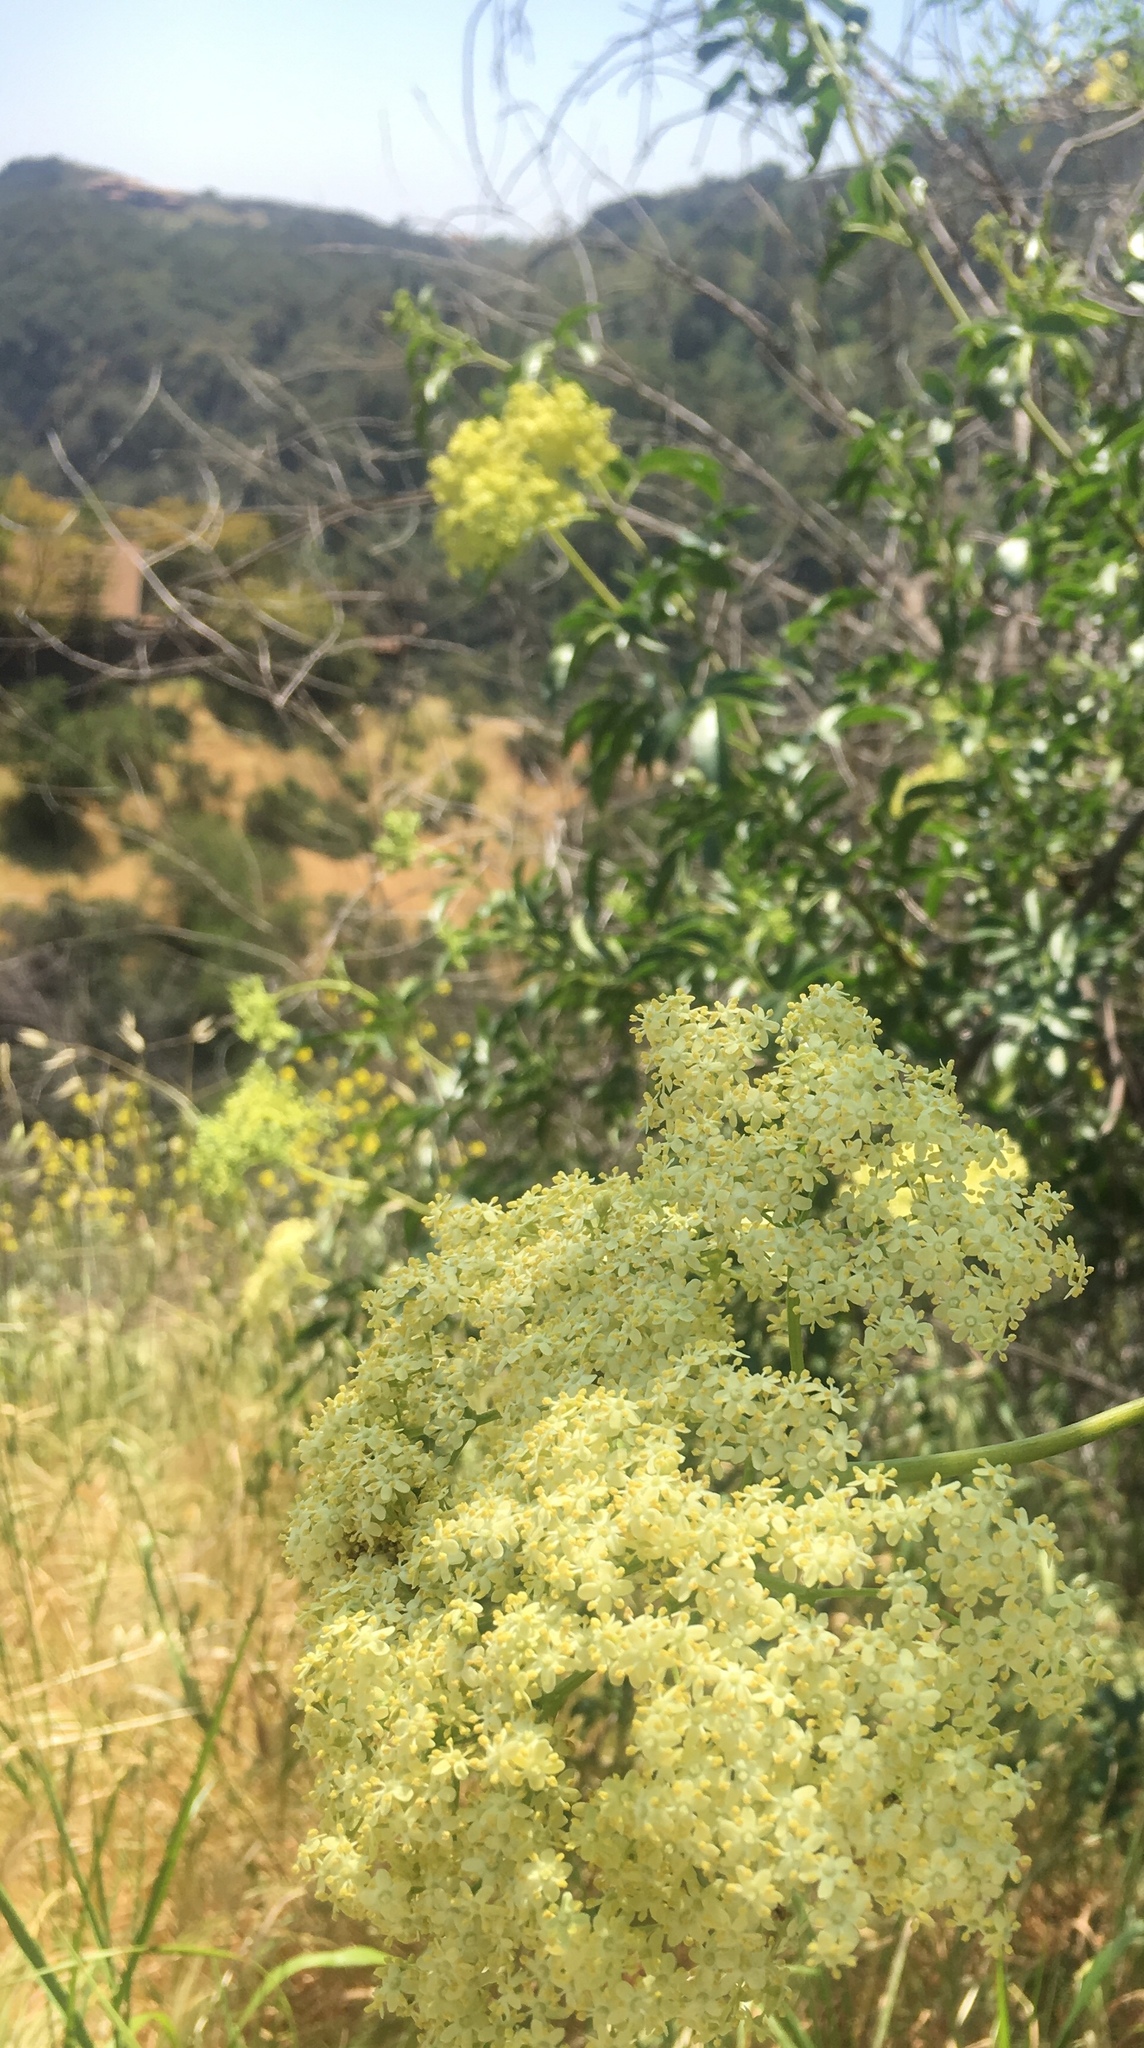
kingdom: Plantae
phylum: Tracheophyta
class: Magnoliopsida
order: Dipsacales
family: Viburnaceae
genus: Sambucus
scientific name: Sambucus cerulea
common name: Blue elder
